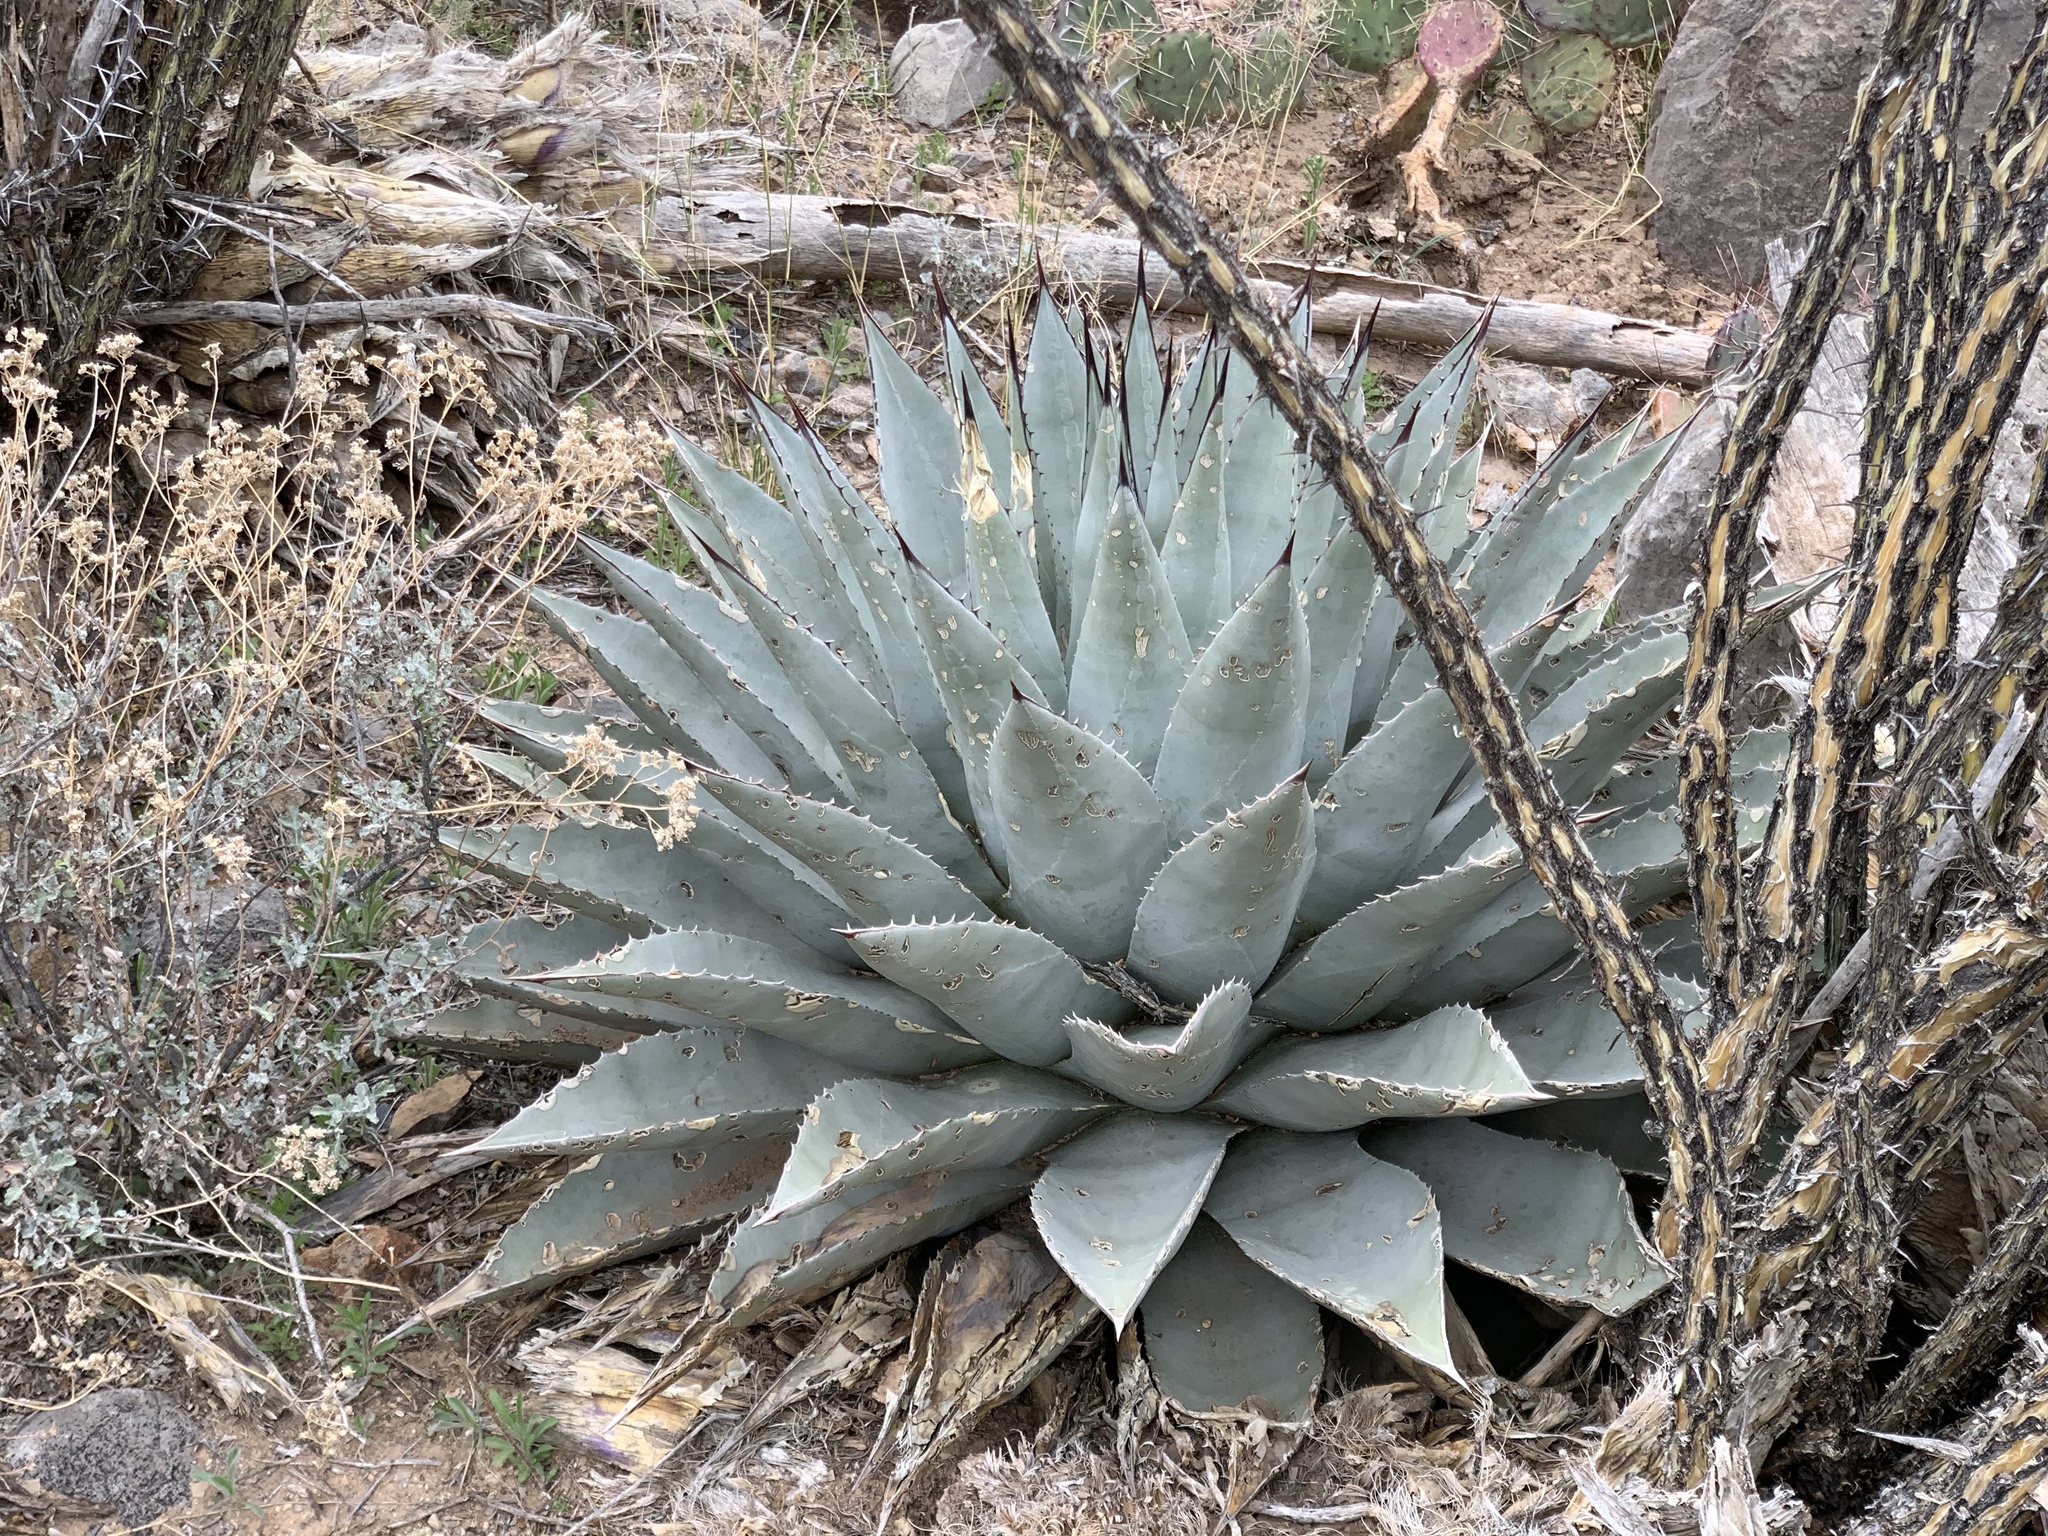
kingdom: Plantae
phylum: Tracheophyta
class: Liliopsida
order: Asparagales
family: Asparagaceae
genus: Agave
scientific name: Agave parryi
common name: Parry's agave
